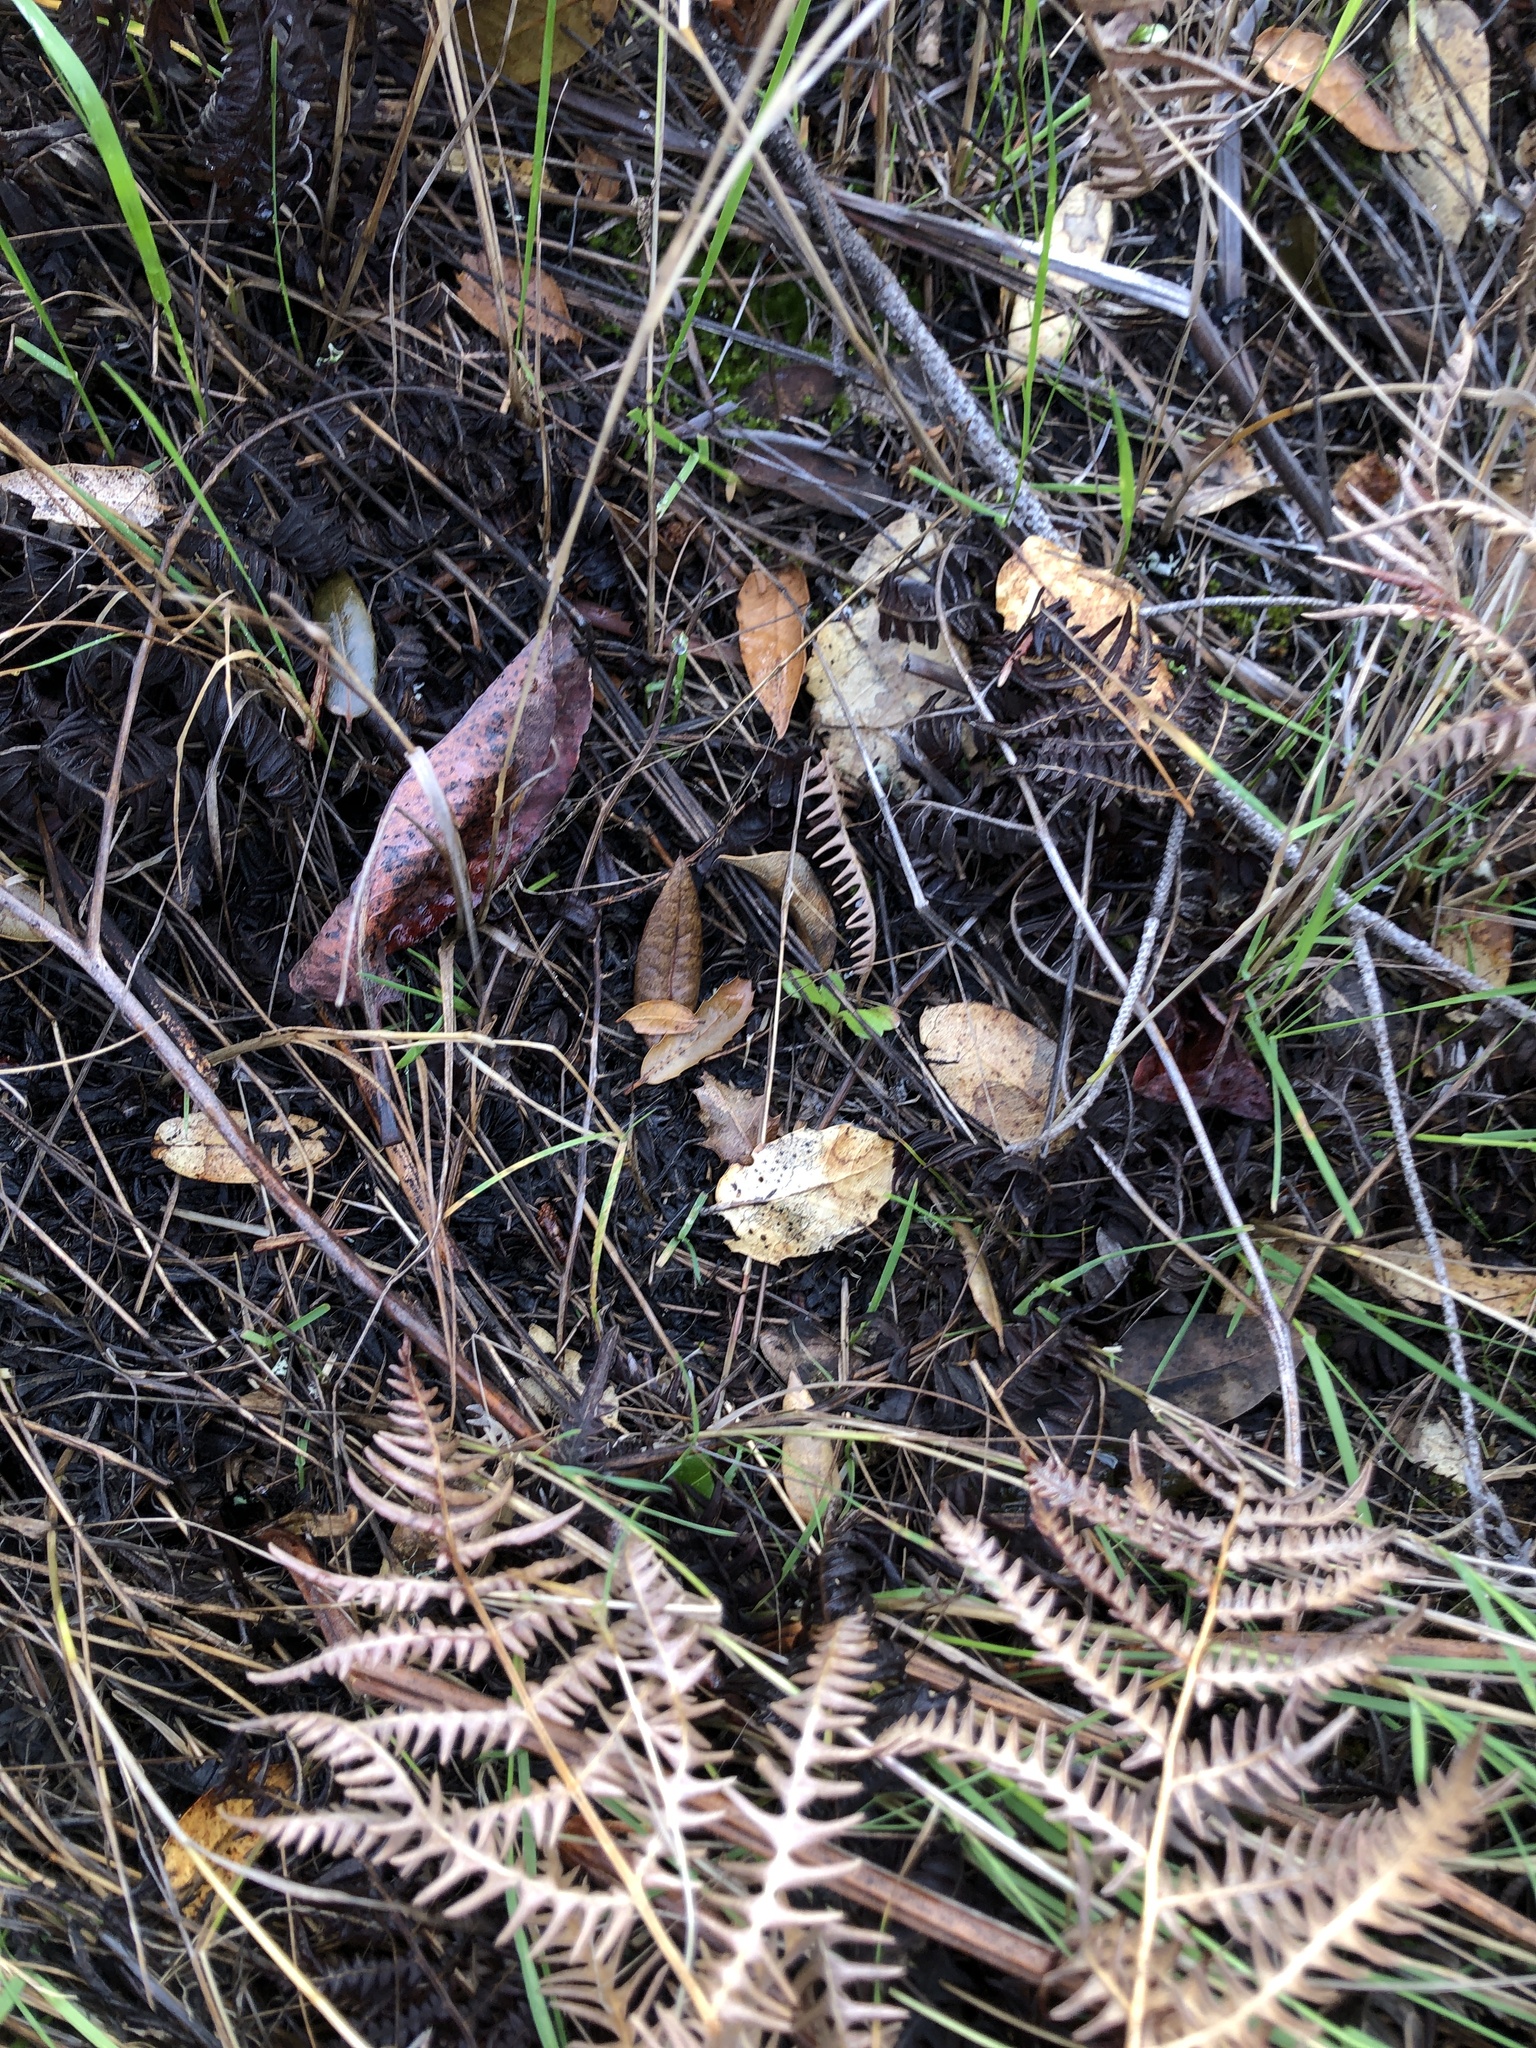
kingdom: Fungi
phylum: Ascomycota
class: Leotiomycetes
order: Rhytismatales
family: Rhytismataceae
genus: Coccomyces
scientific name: Coccomyces dentatus
